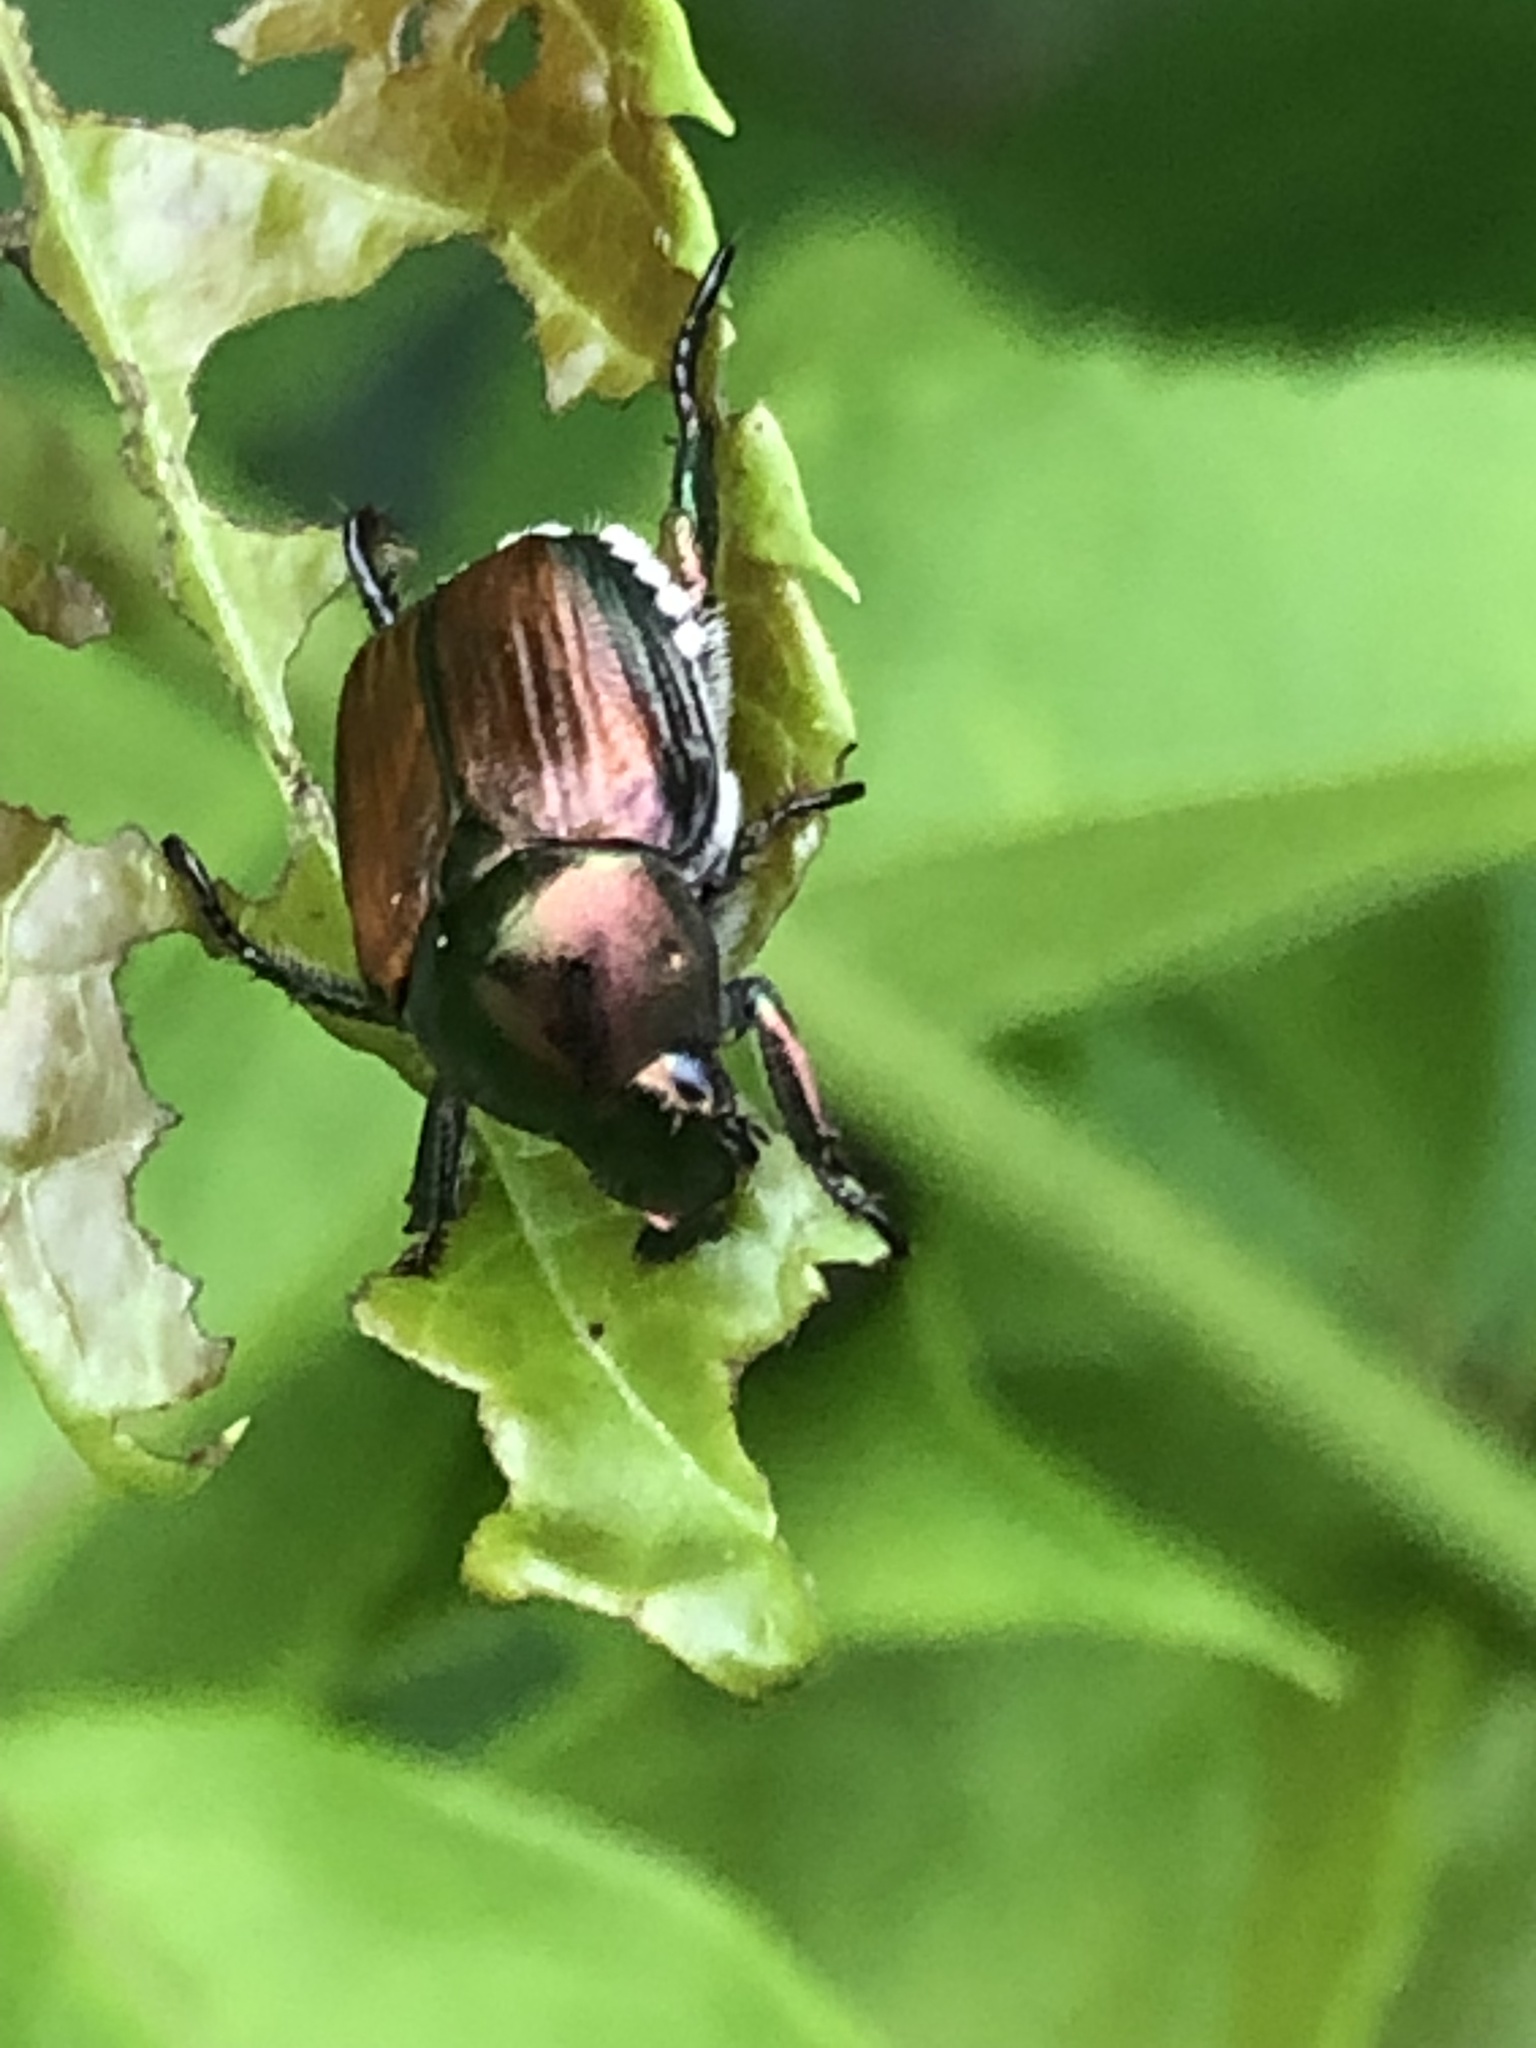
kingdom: Animalia
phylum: Arthropoda
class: Insecta
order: Coleoptera
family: Scarabaeidae
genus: Popillia
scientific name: Popillia japonica
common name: Japanese beetle
